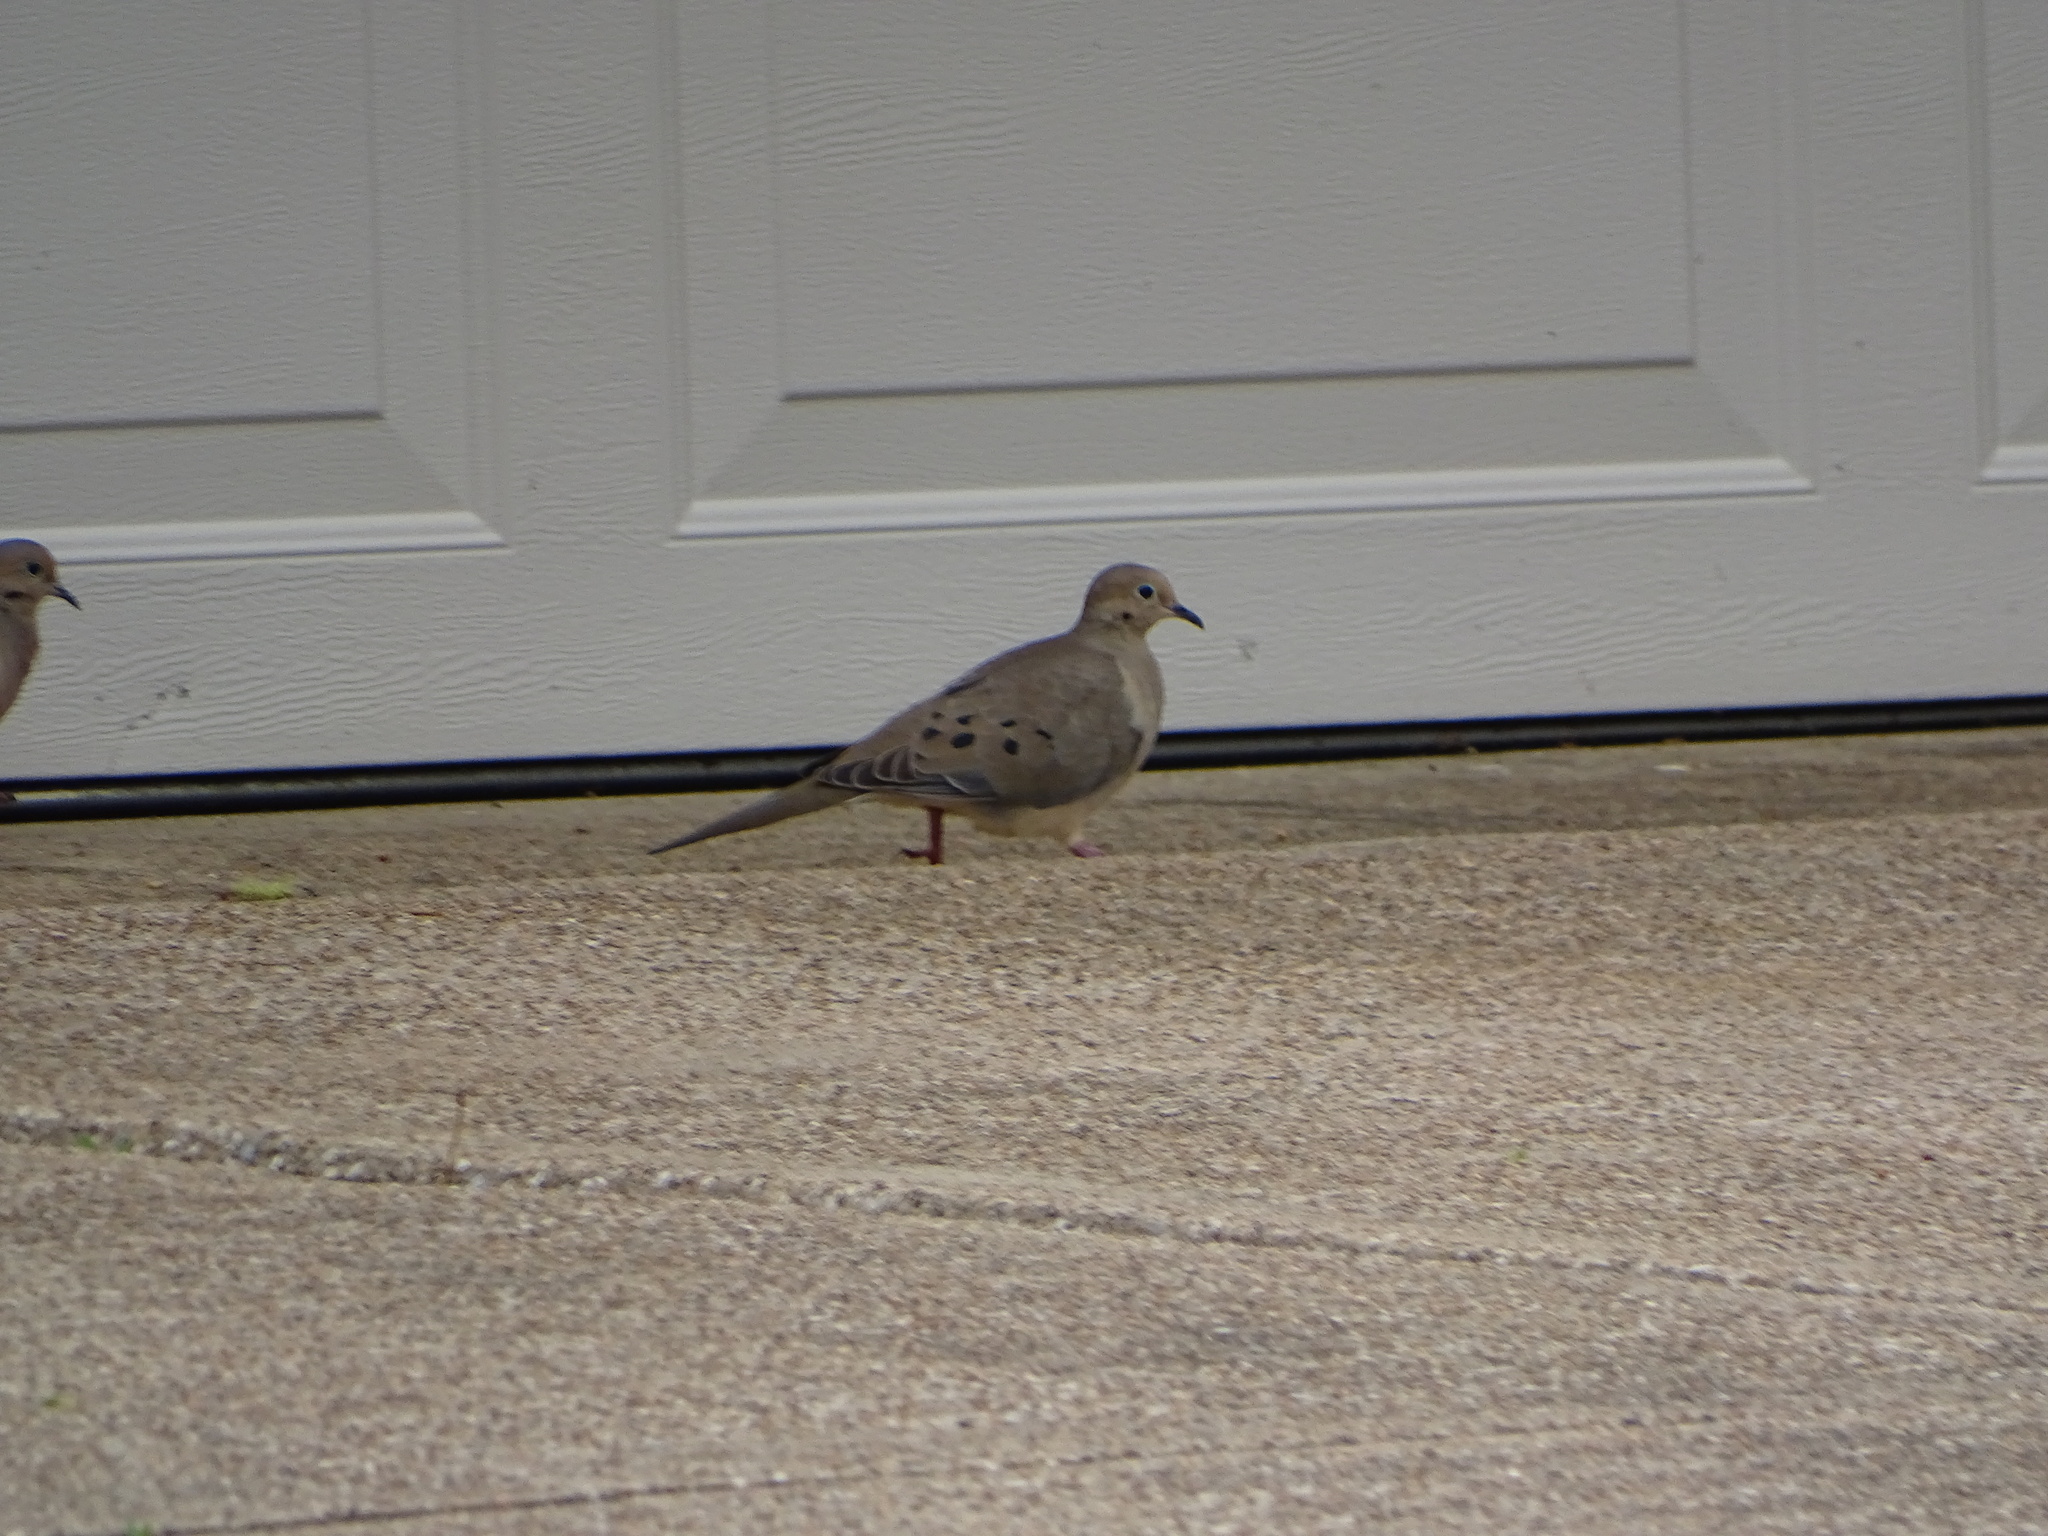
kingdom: Animalia
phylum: Chordata
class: Aves
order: Columbiformes
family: Columbidae
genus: Zenaida
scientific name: Zenaida macroura
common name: Mourning dove
